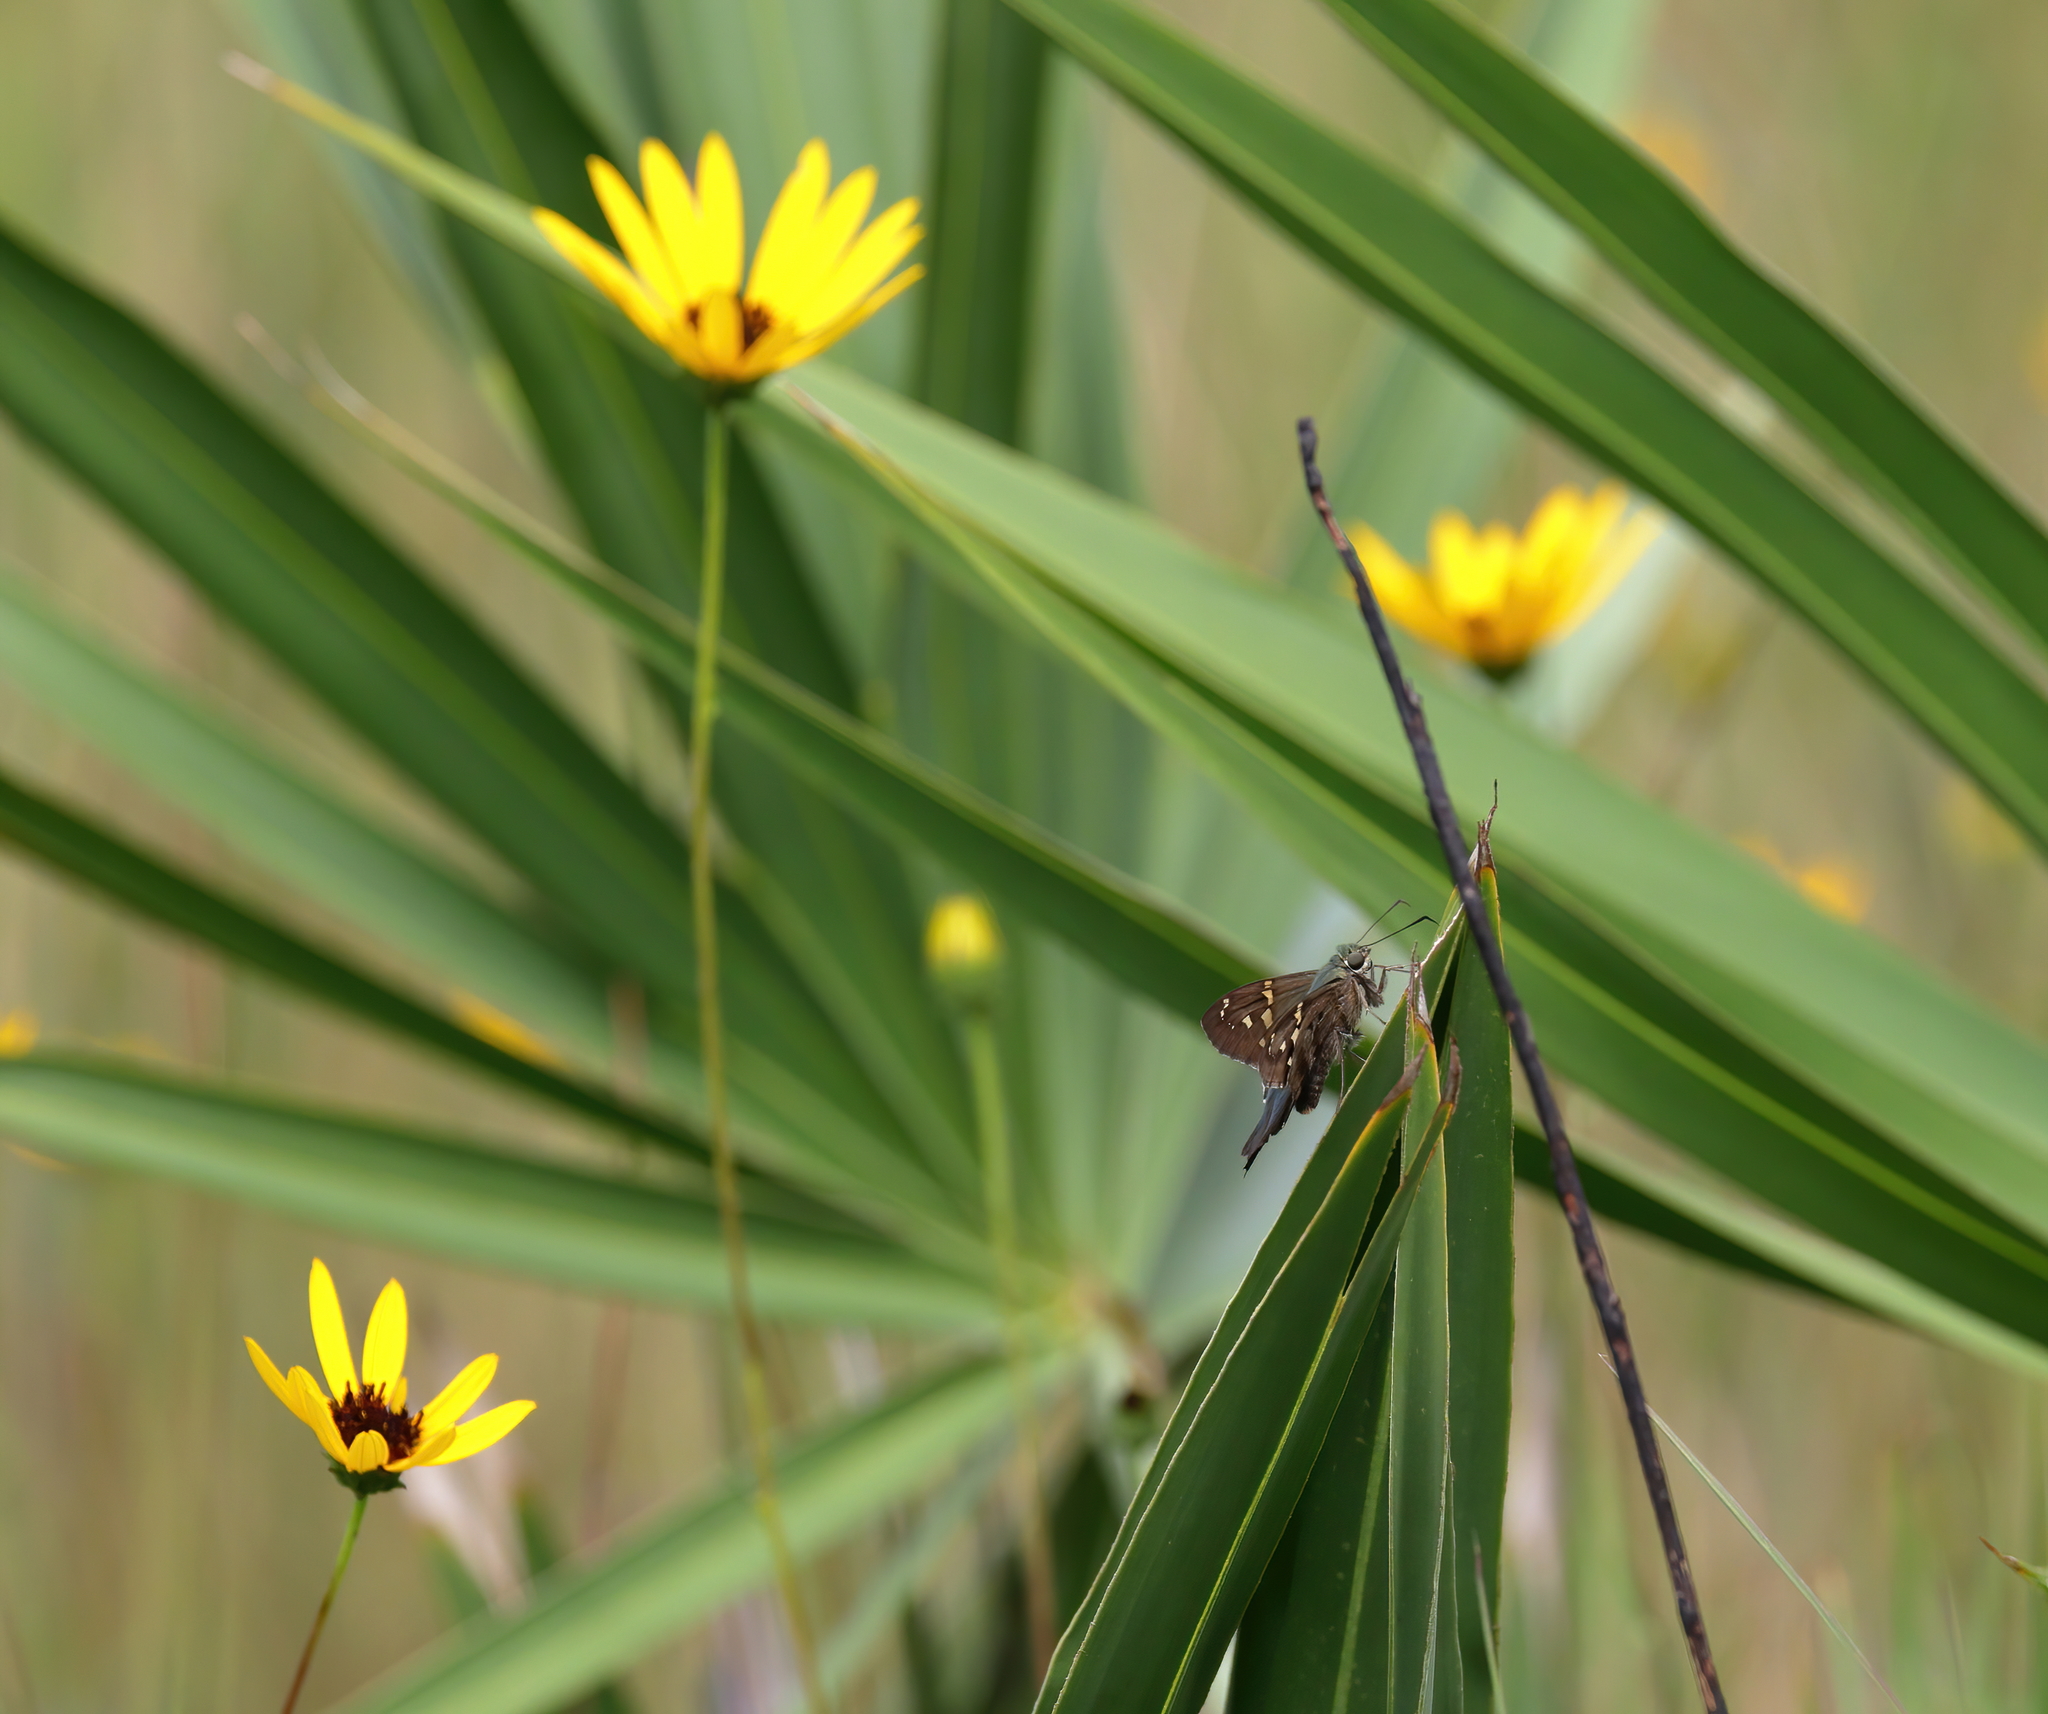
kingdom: Animalia
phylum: Arthropoda
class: Insecta
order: Lepidoptera
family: Hesperiidae
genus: Urbanus
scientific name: Urbanus proteus
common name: Long-tailed skipper
